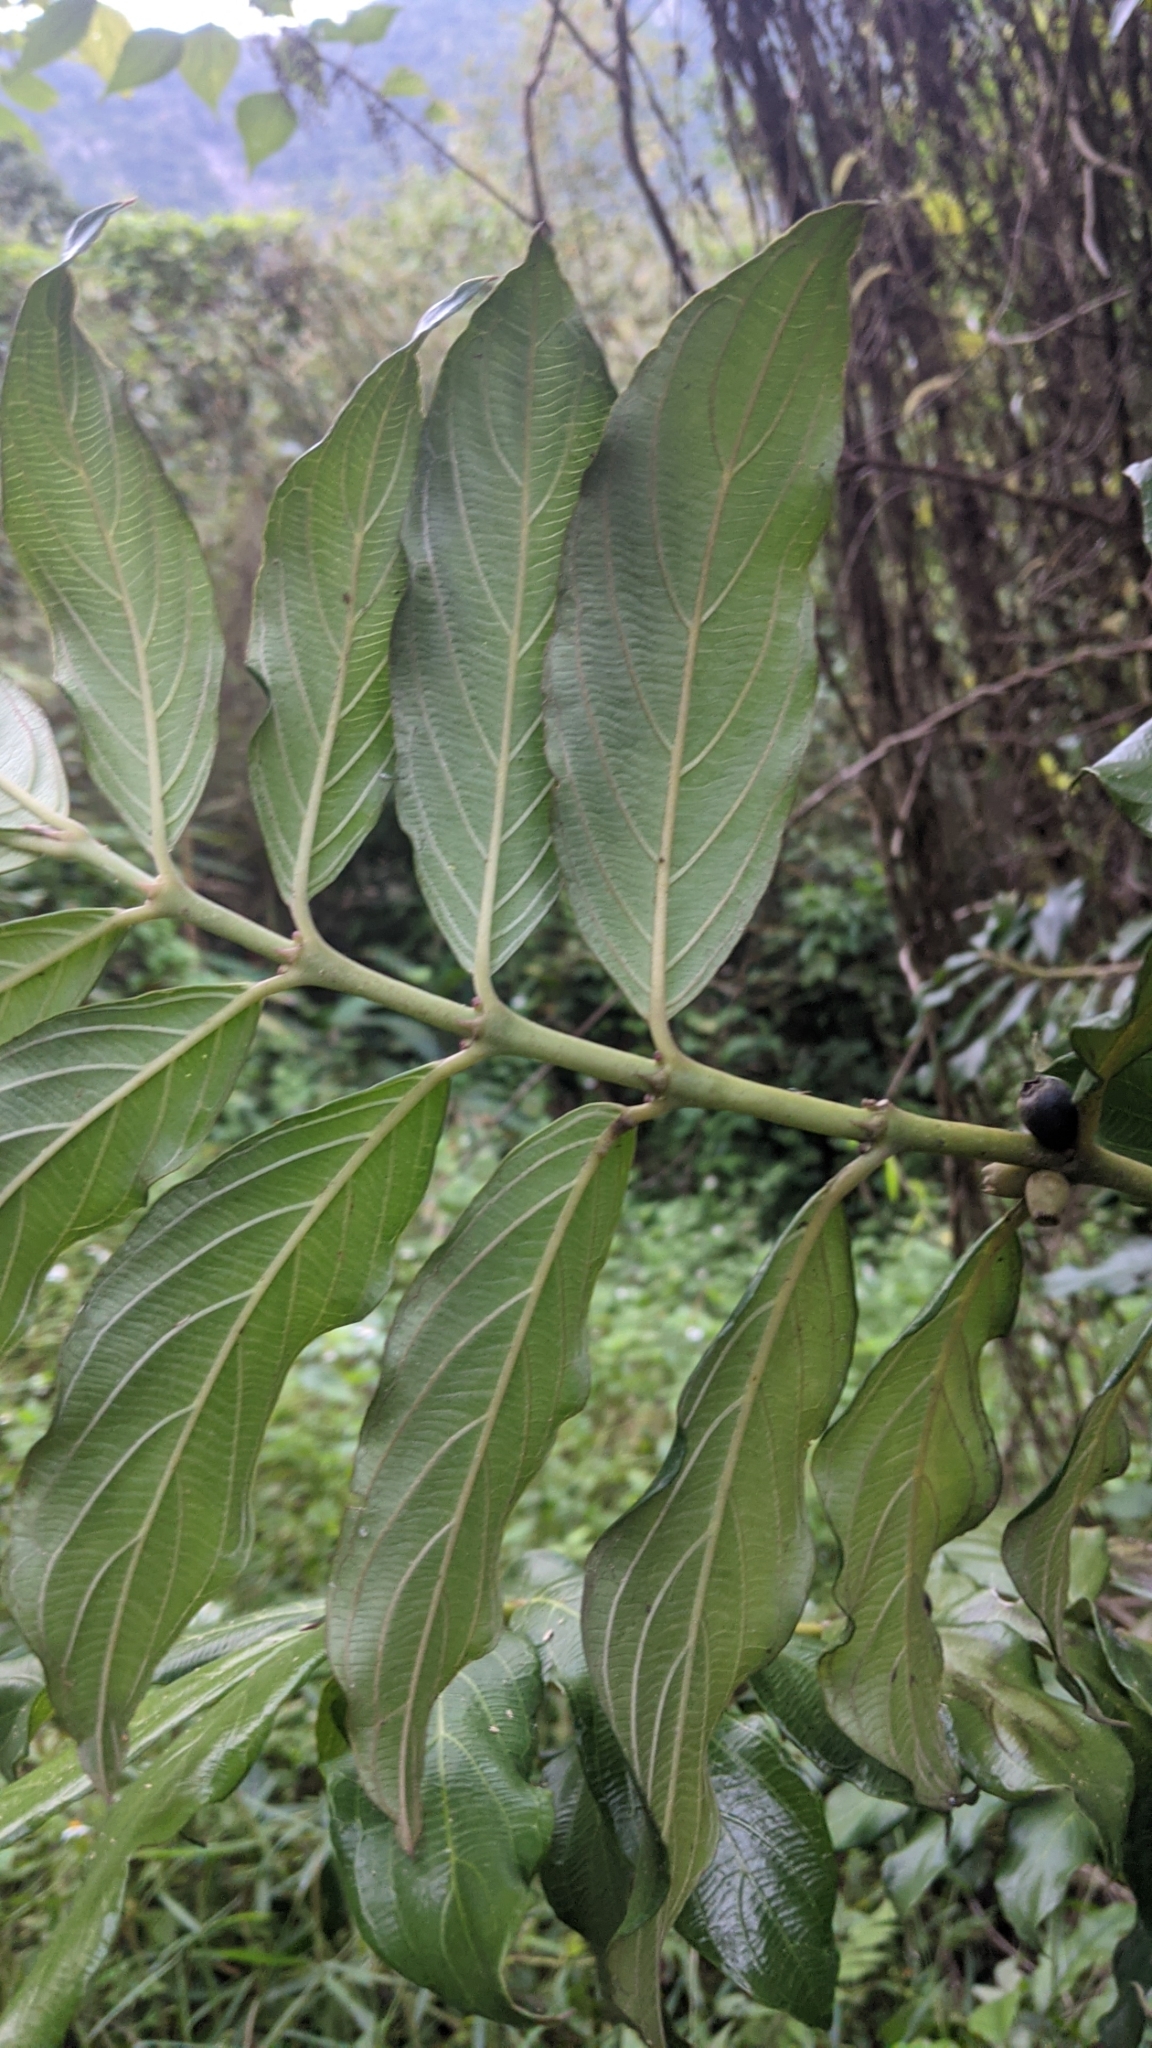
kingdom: Plantae
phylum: Tracheophyta
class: Magnoliopsida
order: Gentianales
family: Rubiaceae
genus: Lasianthus
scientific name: Lasianthus verticillatus
